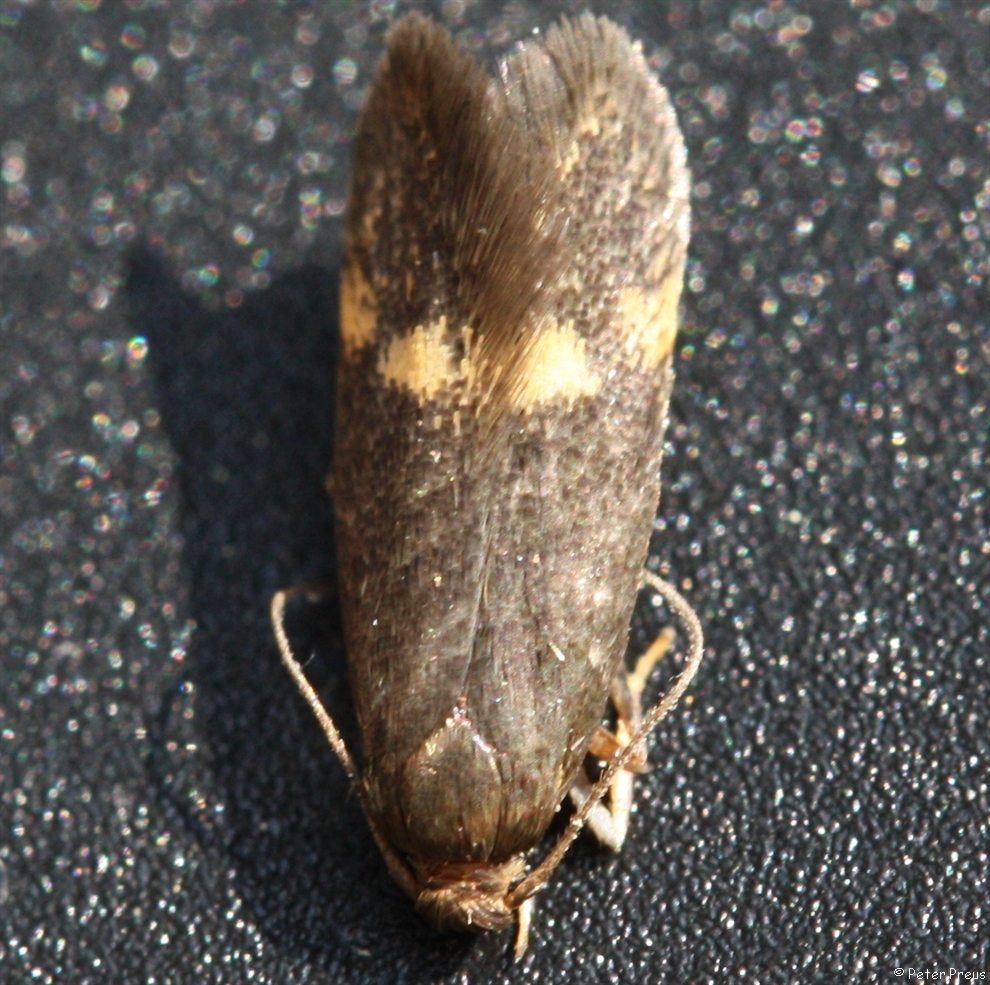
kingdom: Animalia
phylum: Arthropoda
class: Insecta
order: Lepidoptera
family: Oecophoridae
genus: Borkhausenia
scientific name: Borkhausenia minutella
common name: Thatch tubic
